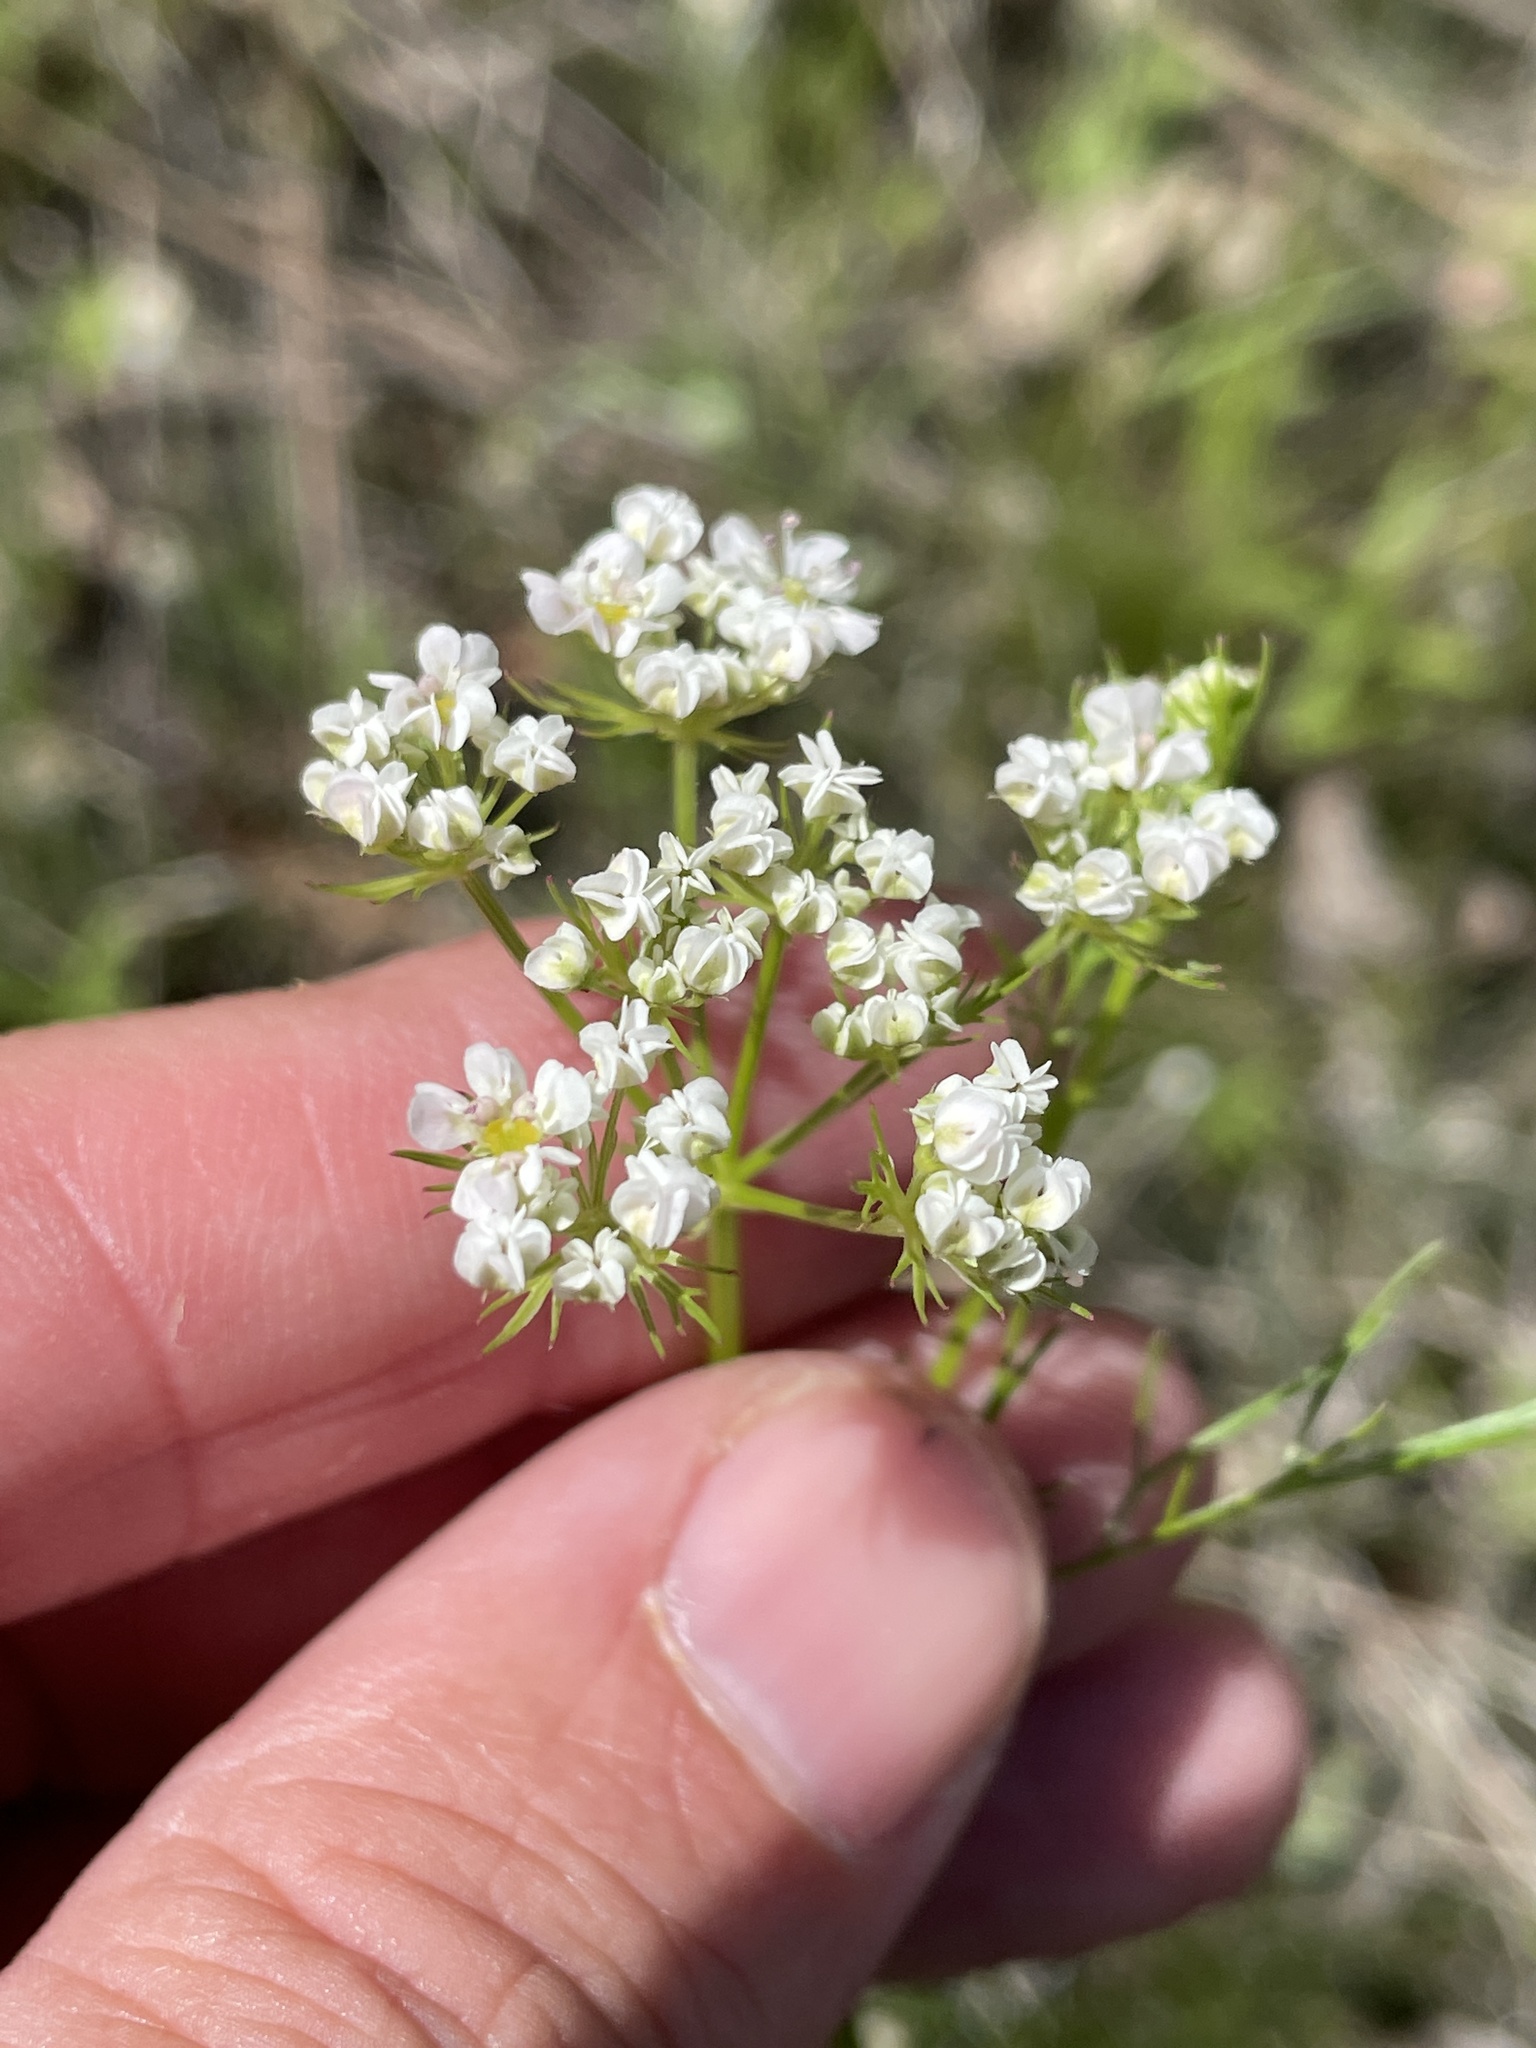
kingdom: Plantae
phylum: Tracheophyta
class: Magnoliopsida
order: Apiales
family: Apiaceae
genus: Atrema
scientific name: Atrema americanum
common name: Prairie-bishop
